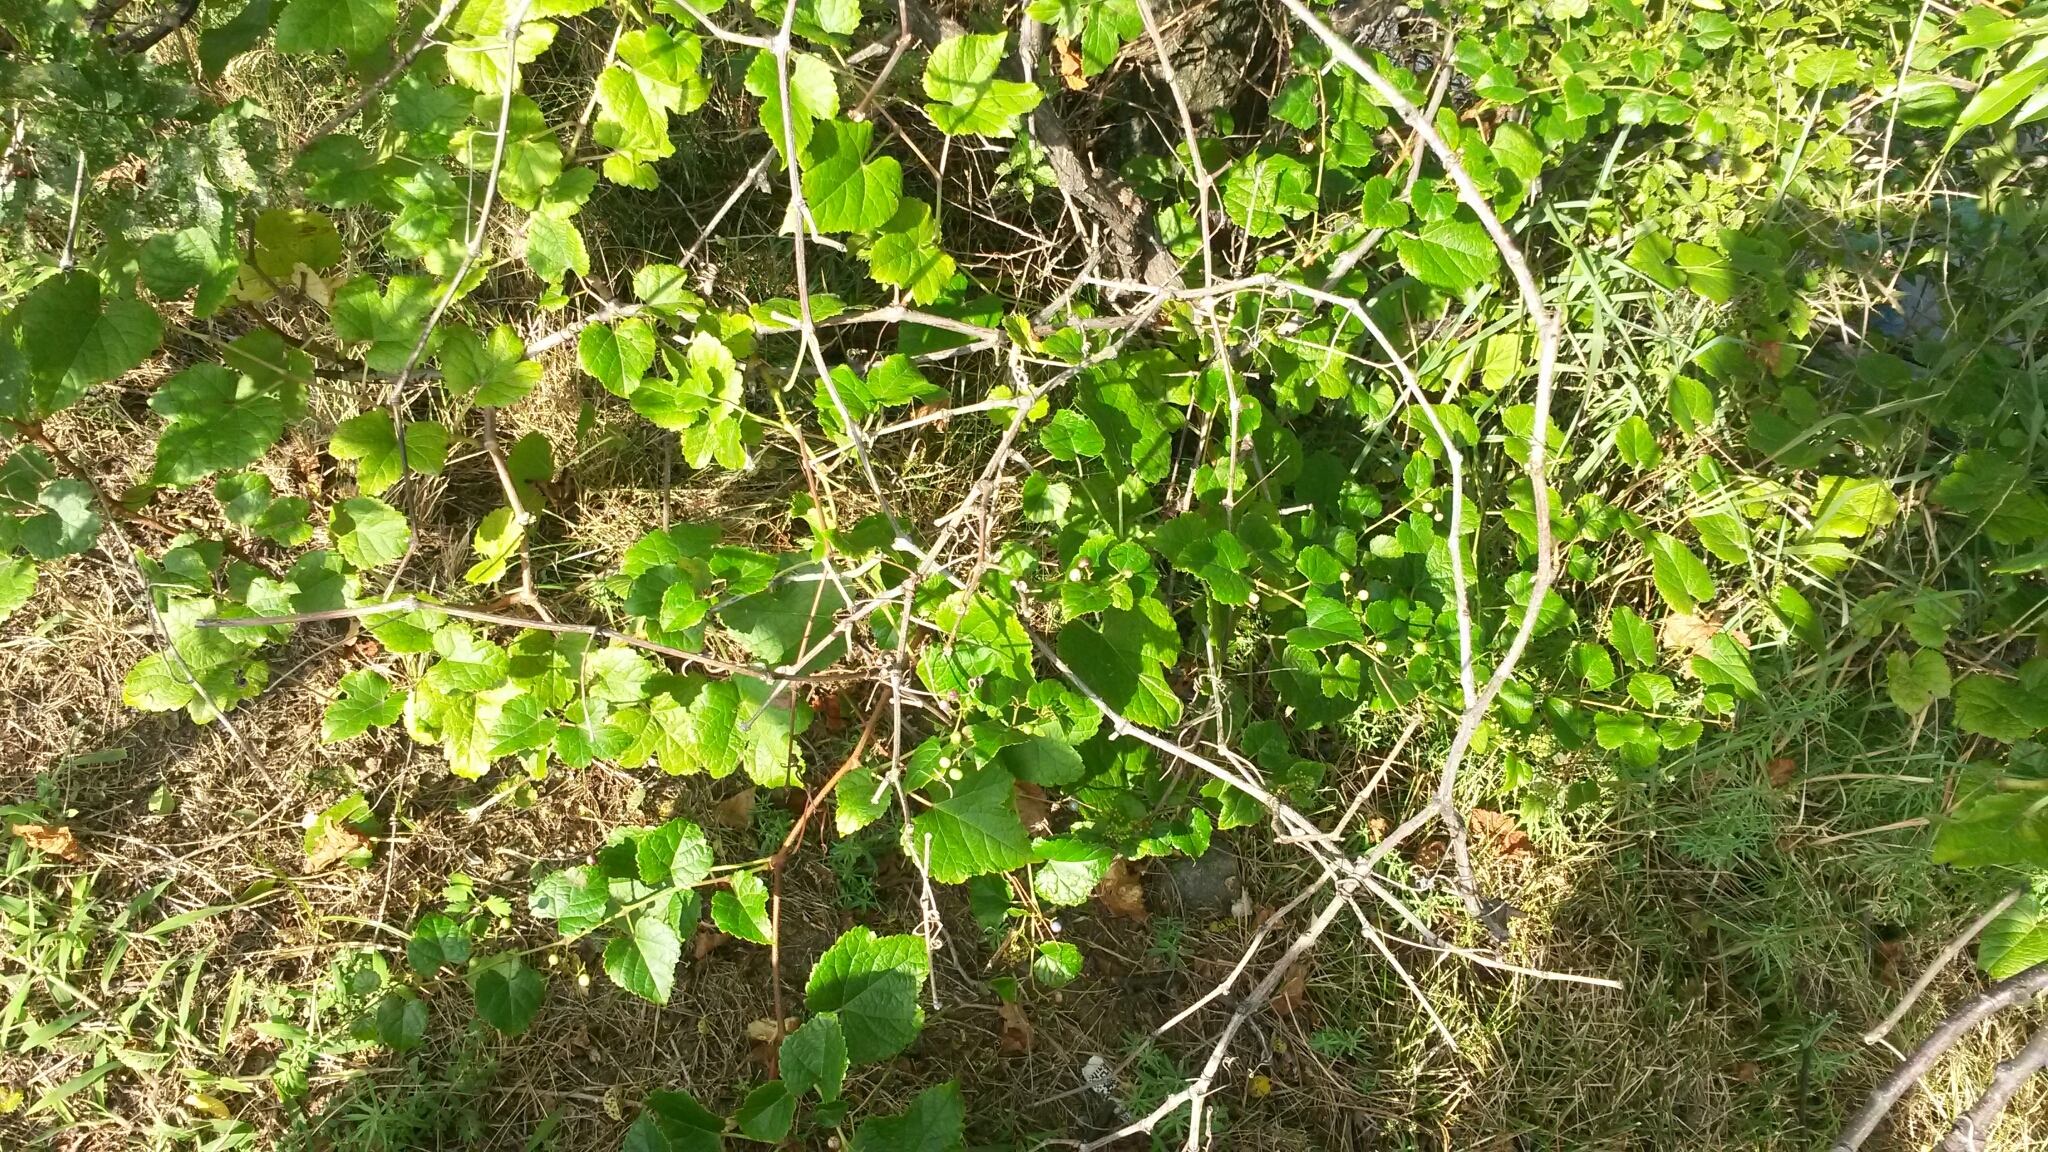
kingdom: Plantae
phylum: Tracheophyta
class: Magnoliopsida
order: Vitales
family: Vitaceae
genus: Ampelopsis
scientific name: Ampelopsis glandulosa
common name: Amur peppervine
